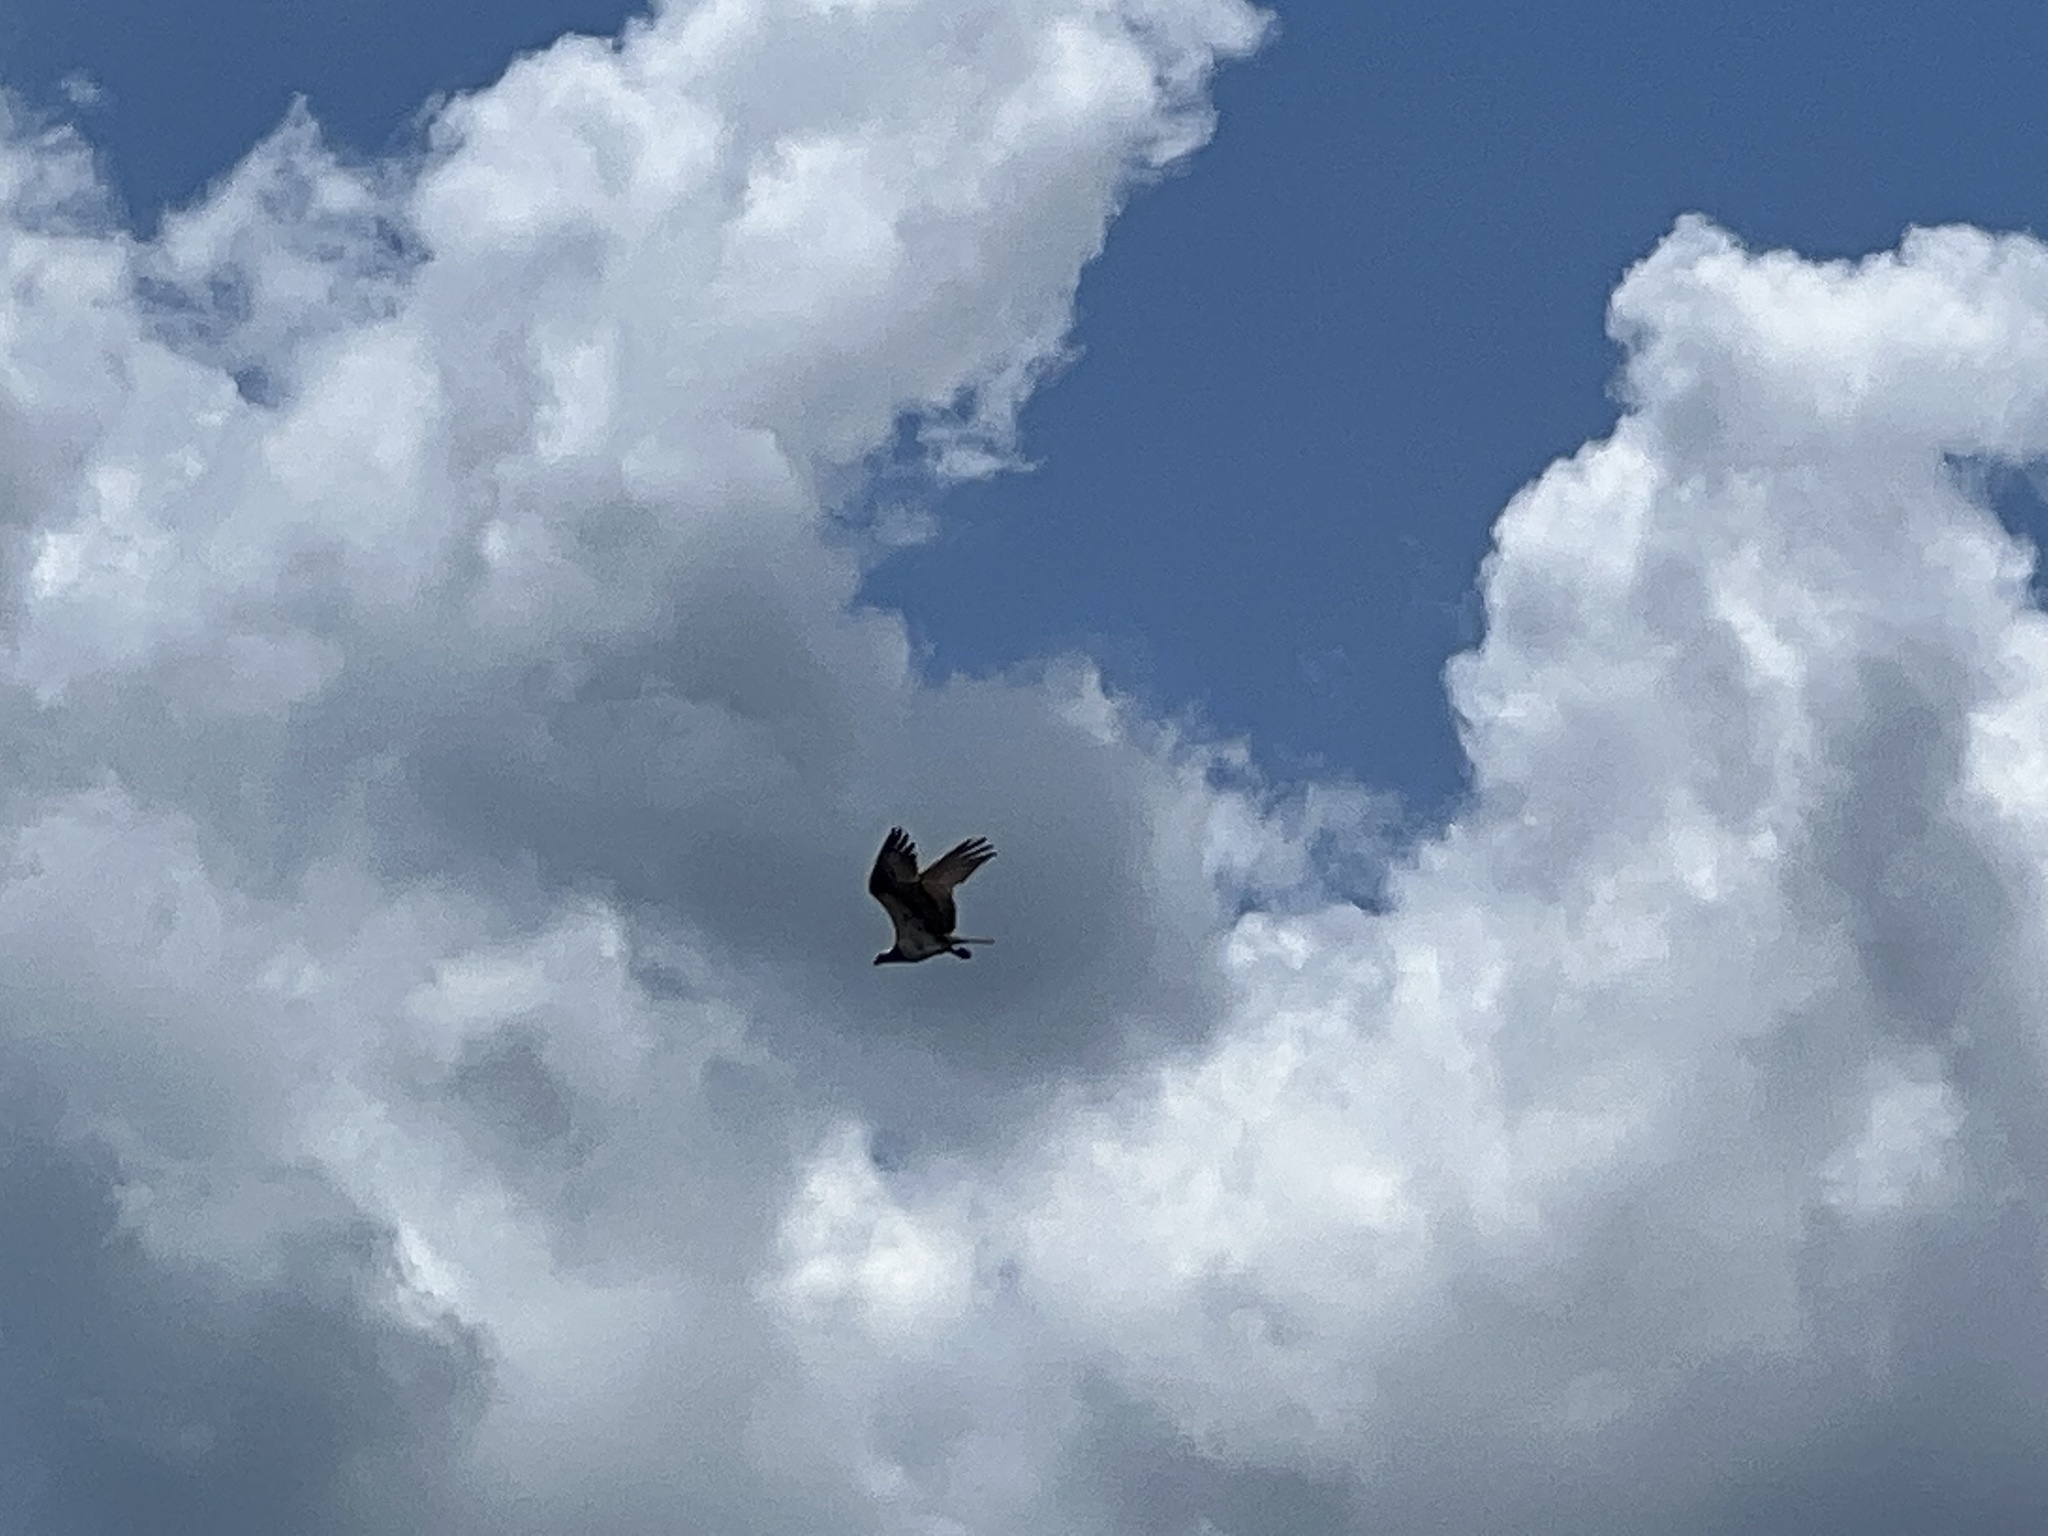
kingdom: Animalia
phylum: Chordata
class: Aves
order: Accipitriformes
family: Pandionidae
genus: Pandion
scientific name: Pandion haliaetus
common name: Osprey
